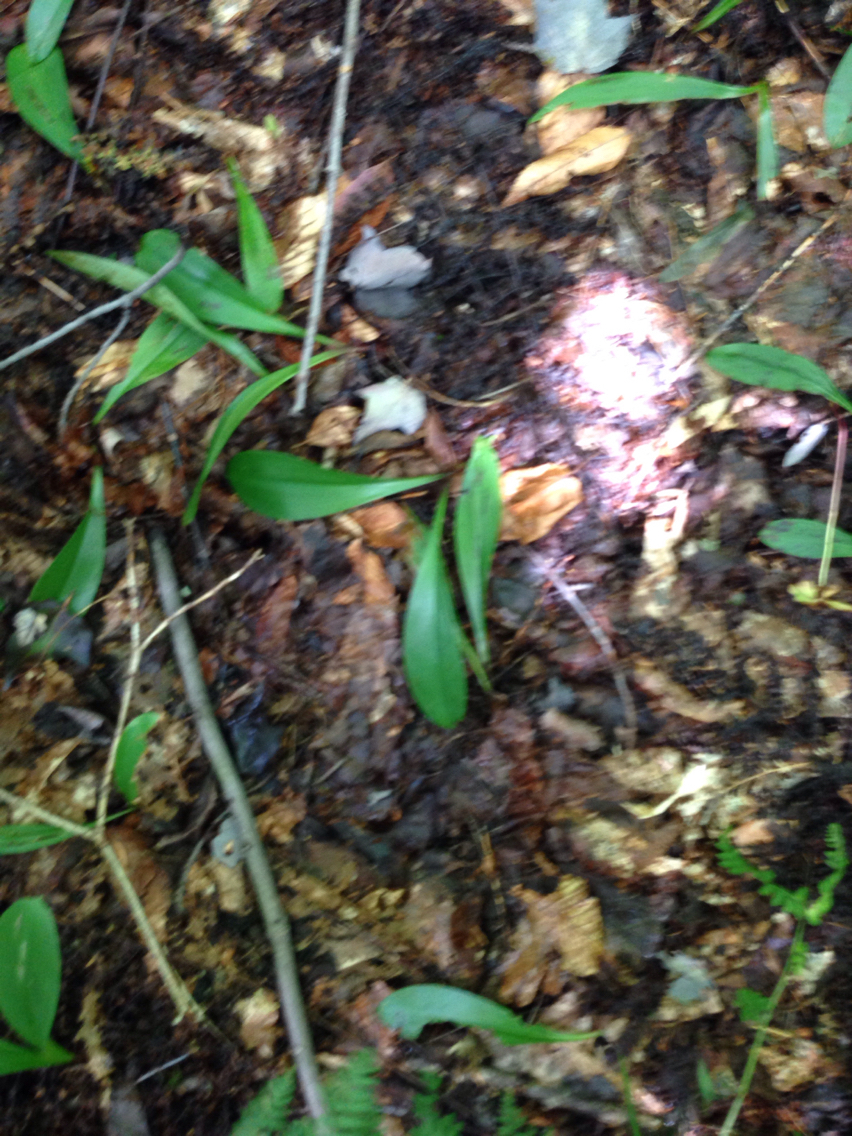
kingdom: Plantae
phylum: Tracheophyta
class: Liliopsida
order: Liliales
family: Liliaceae
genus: Clintonia
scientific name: Clintonia borealis
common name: Yellow clintonia
